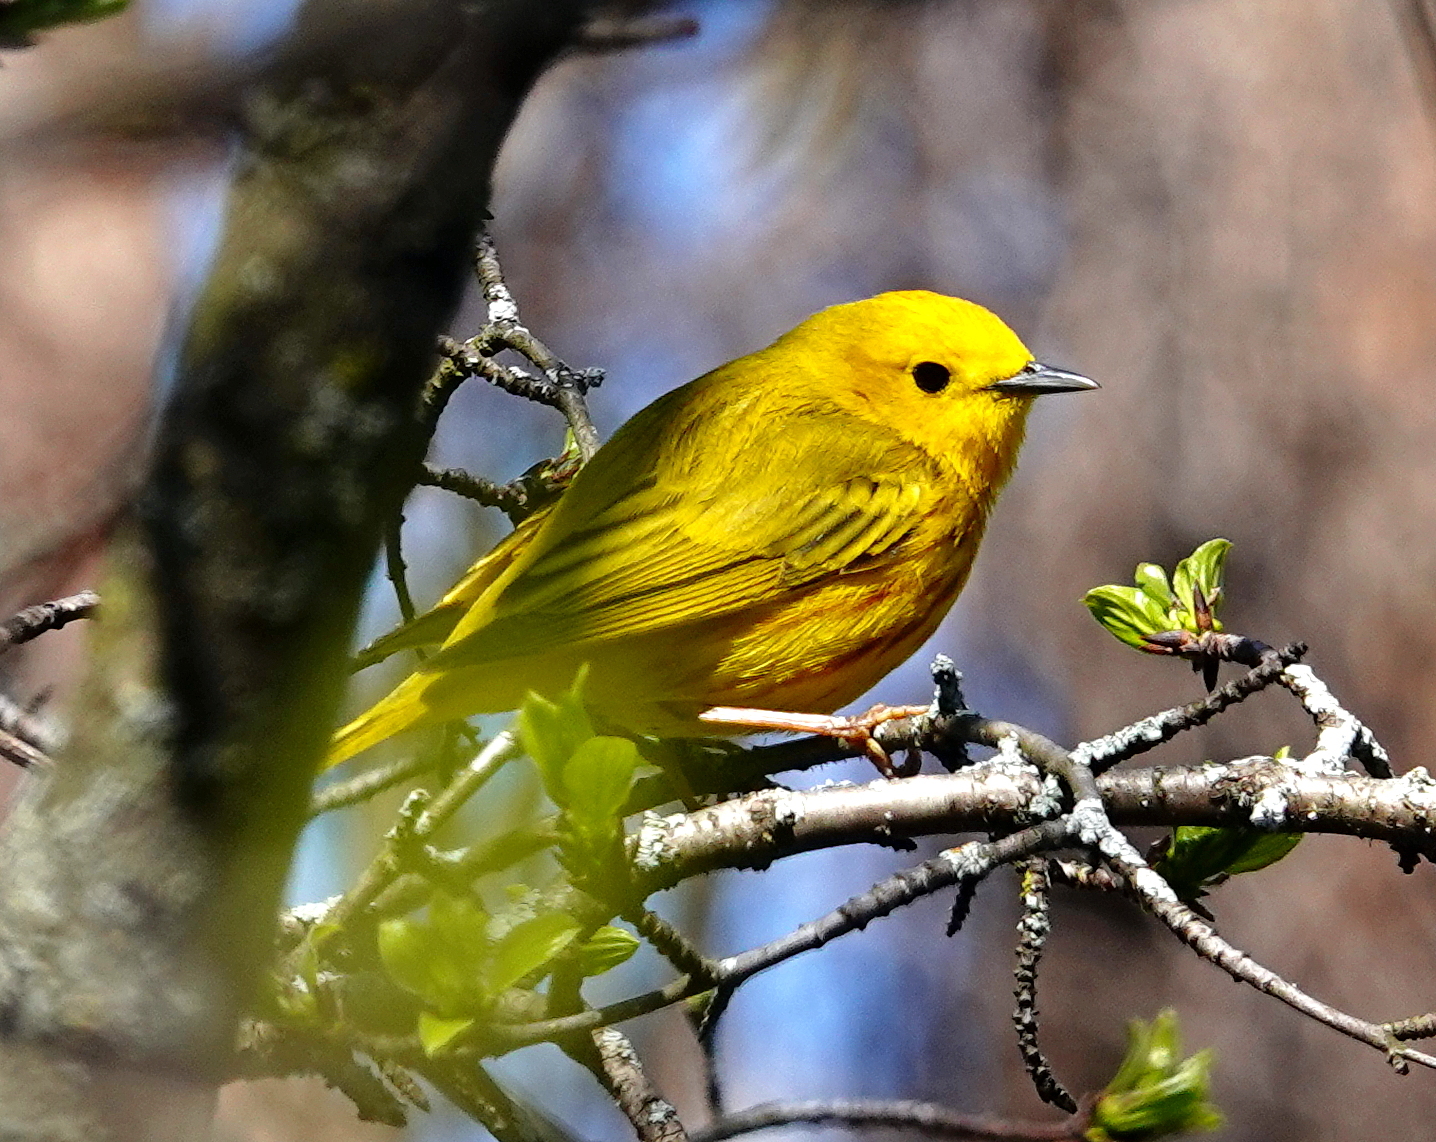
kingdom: Animalia
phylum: Chordata
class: Aves
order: Passeriformes
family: Parulidae
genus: Setophaga
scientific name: Setophaga petechia
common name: Yellow warbler
